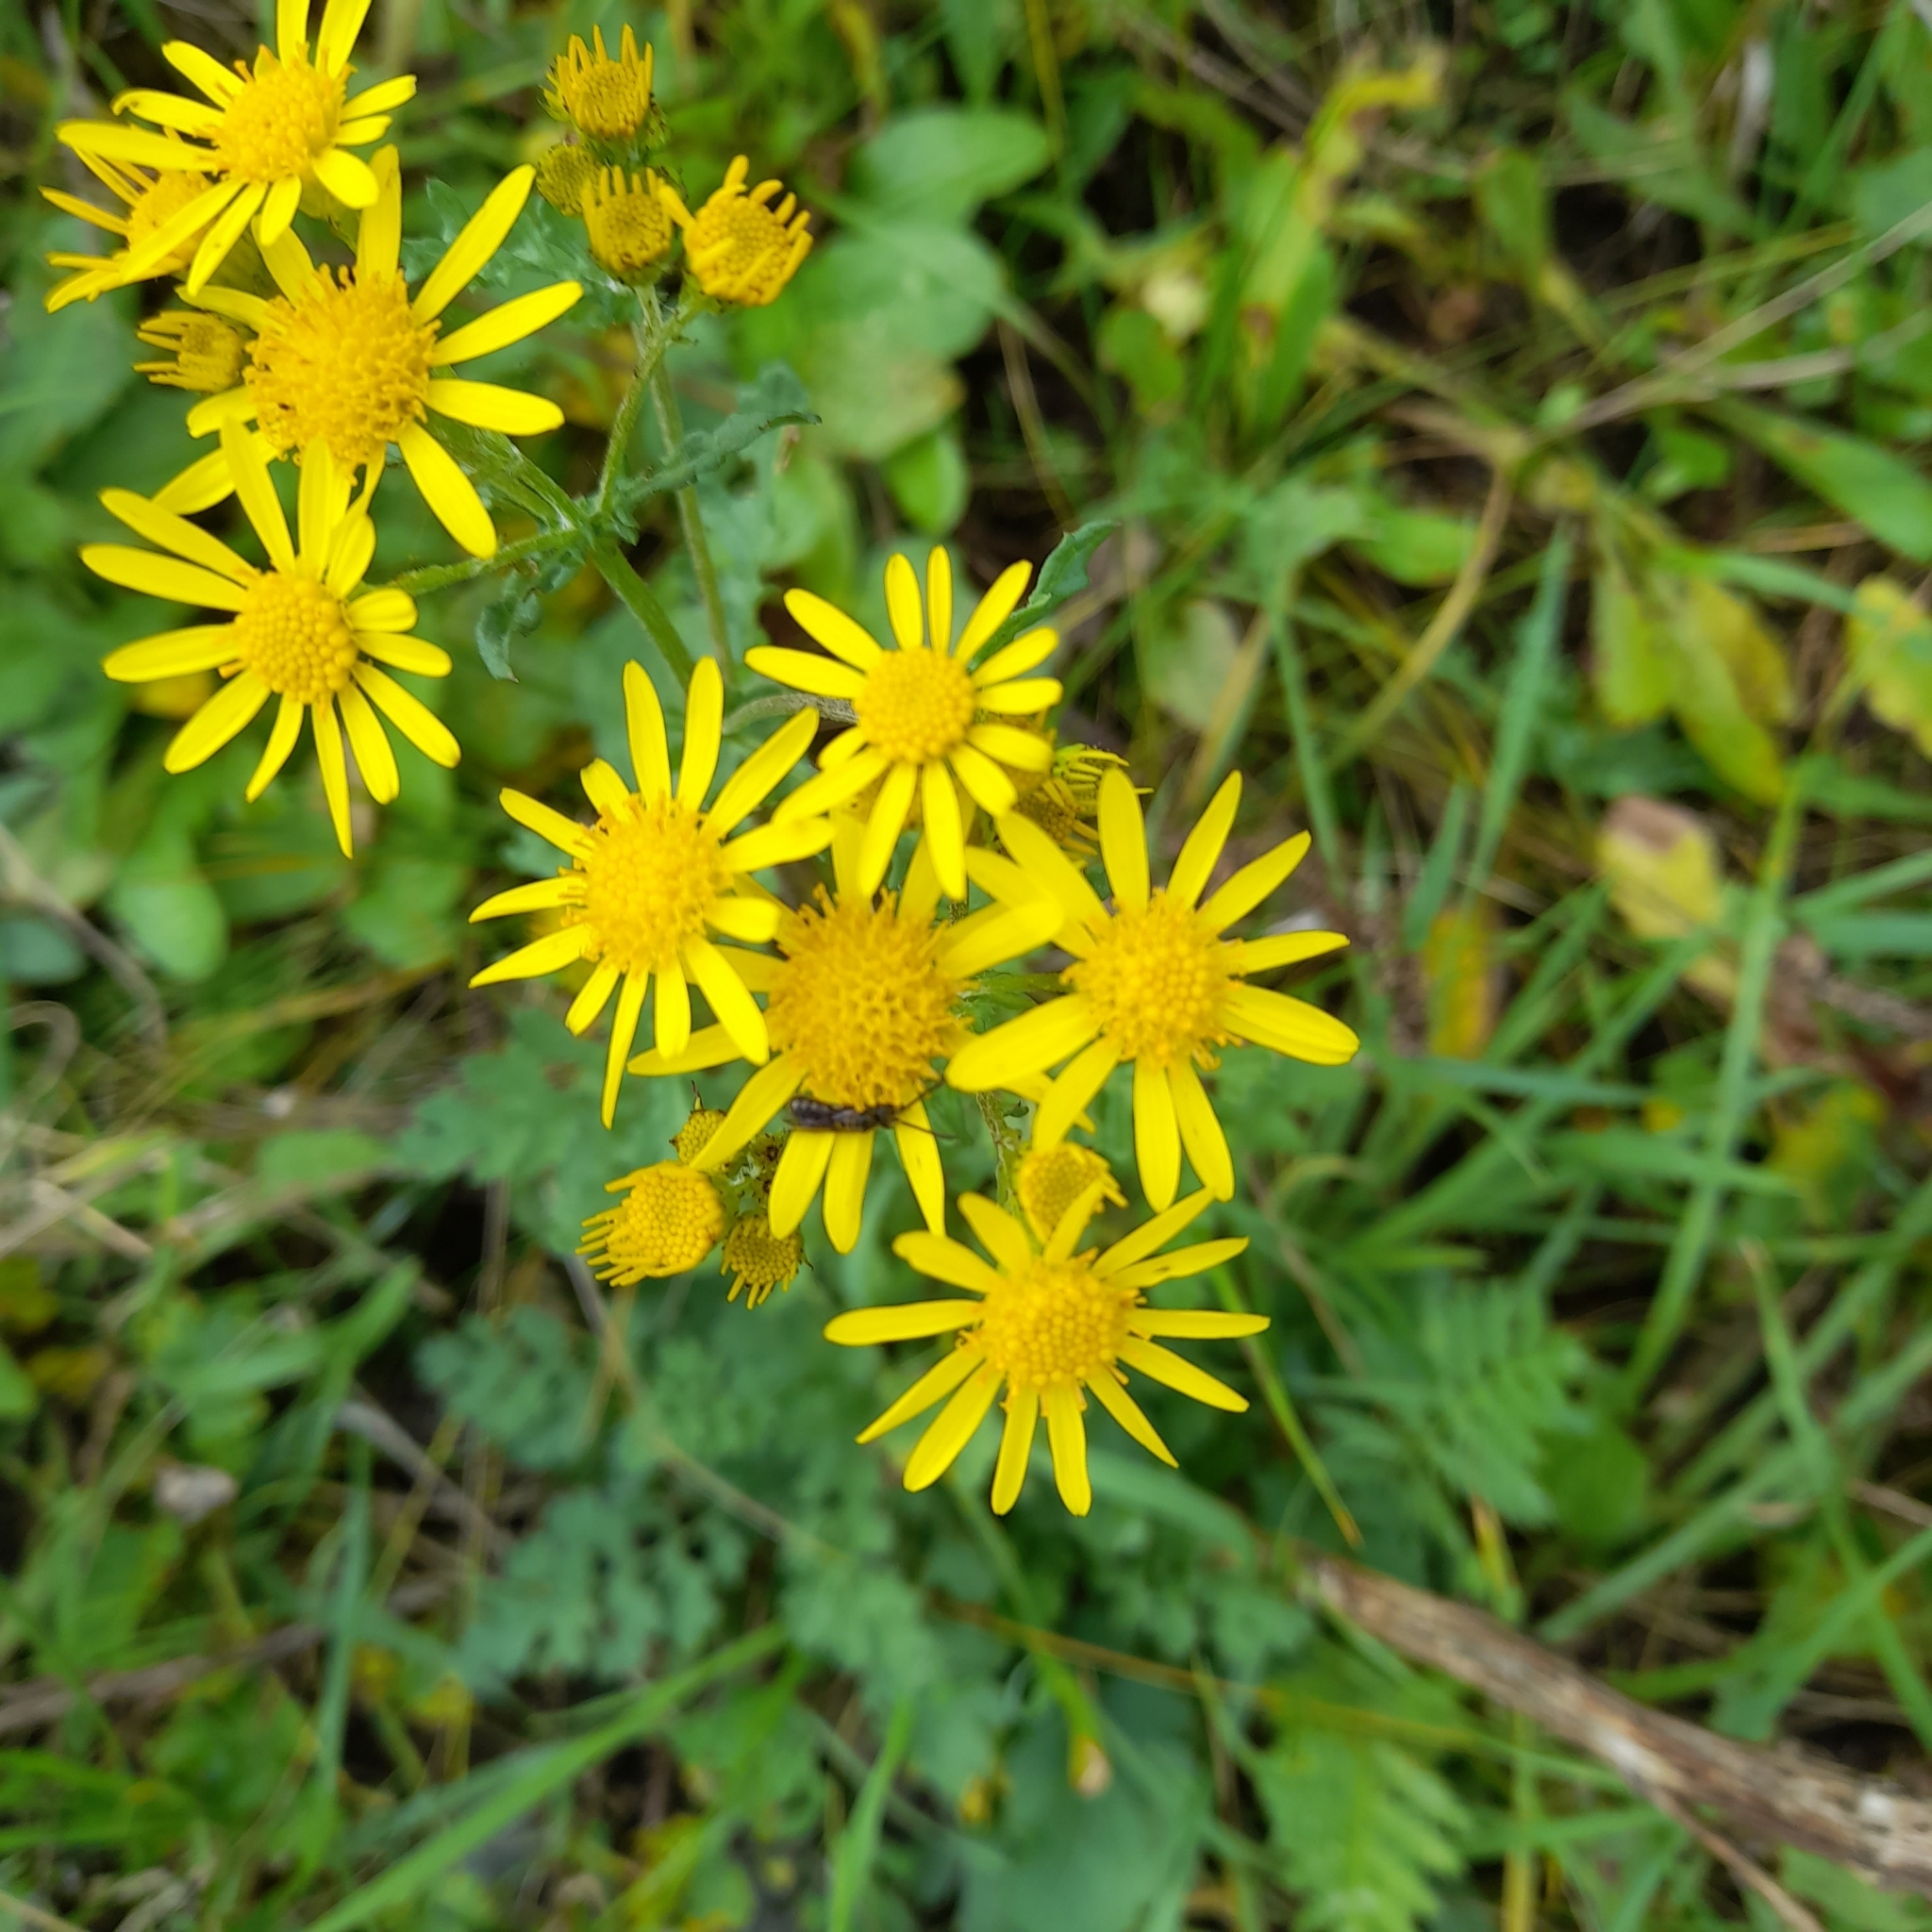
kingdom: Plantae
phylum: Tracheophyta
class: Magnoliopsida
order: Asterales
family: Asteraceae
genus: Jacobaea
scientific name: Jacobaea vulgaris
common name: Stinking willie
